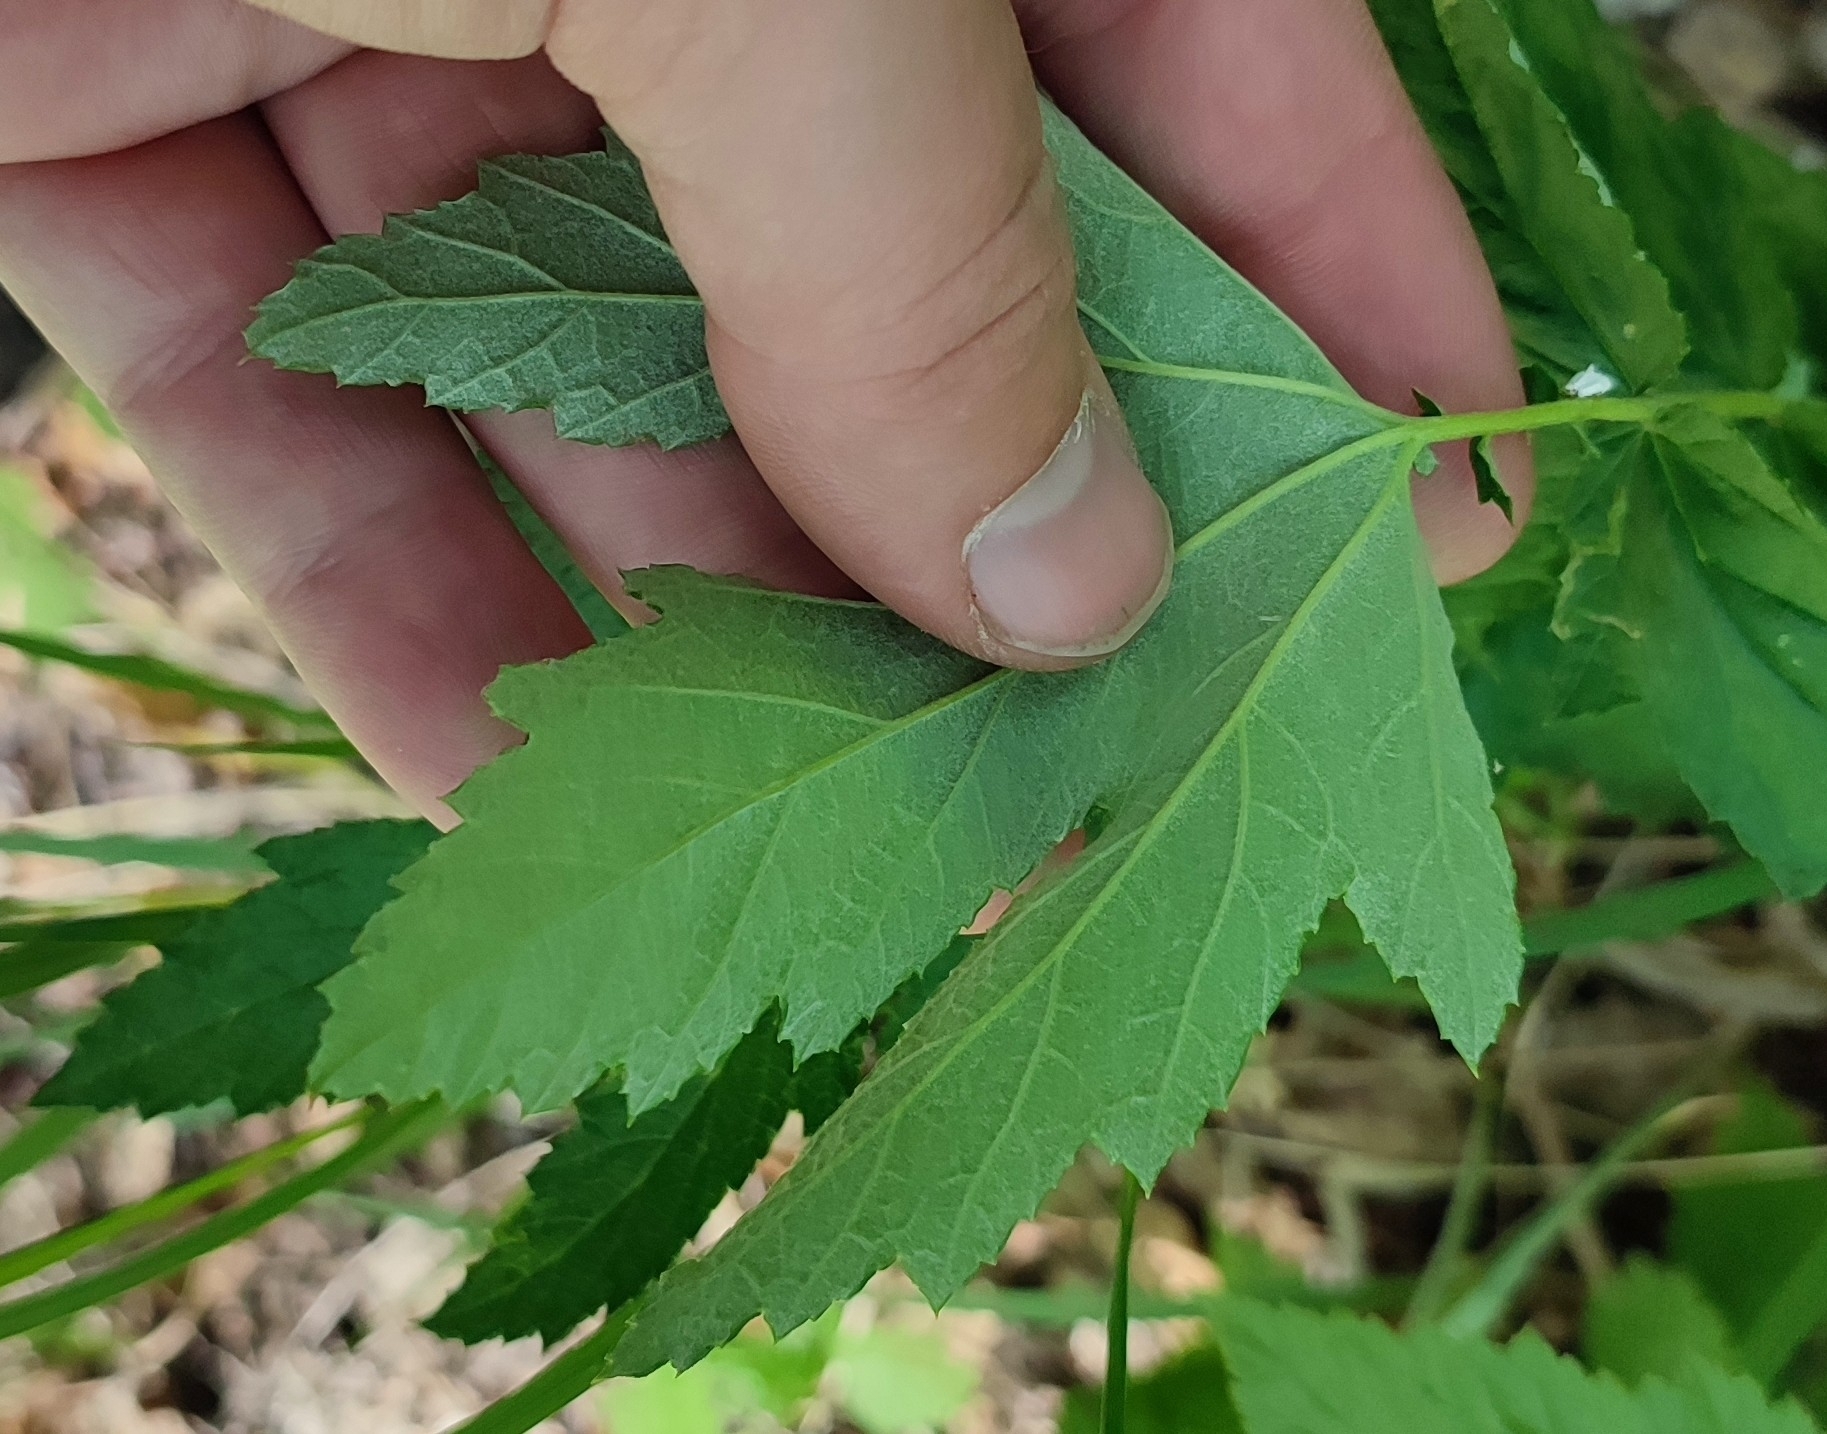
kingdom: Plantae
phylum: Tracheophyta
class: Magnoliopsida
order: Rosales
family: Rosaceae
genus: Filipendula
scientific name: Filipendula ulmaria
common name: Meadowsweet
